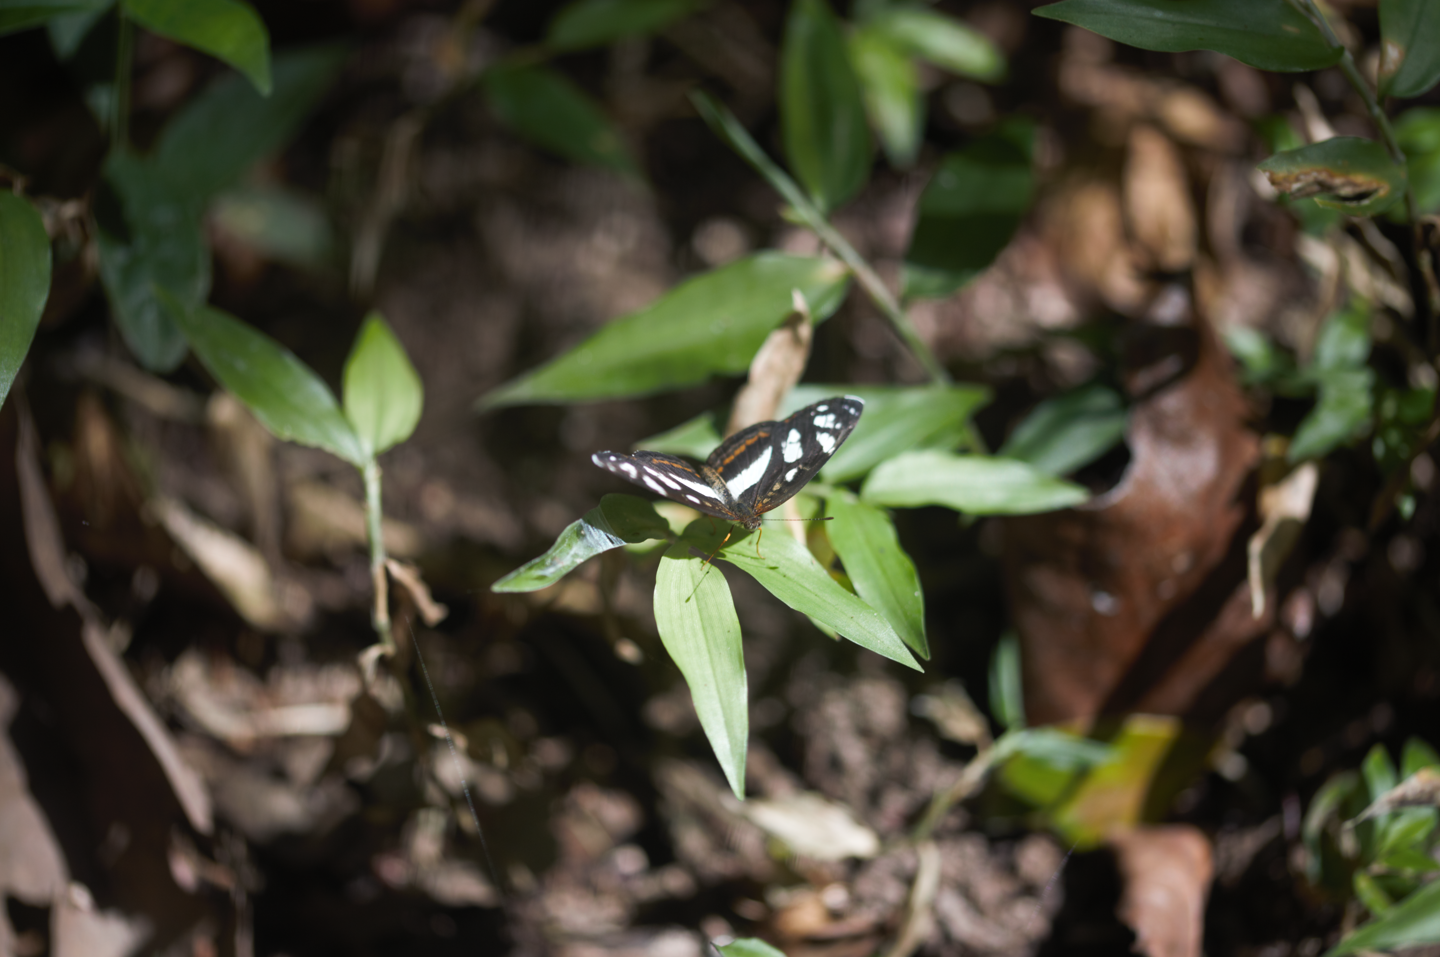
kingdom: Animalia
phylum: Arthropoda
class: Insecta
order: Lepidoptera
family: Nymphalidae
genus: Eresia
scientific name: Eresia nauplius
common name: Nauplius crescent
